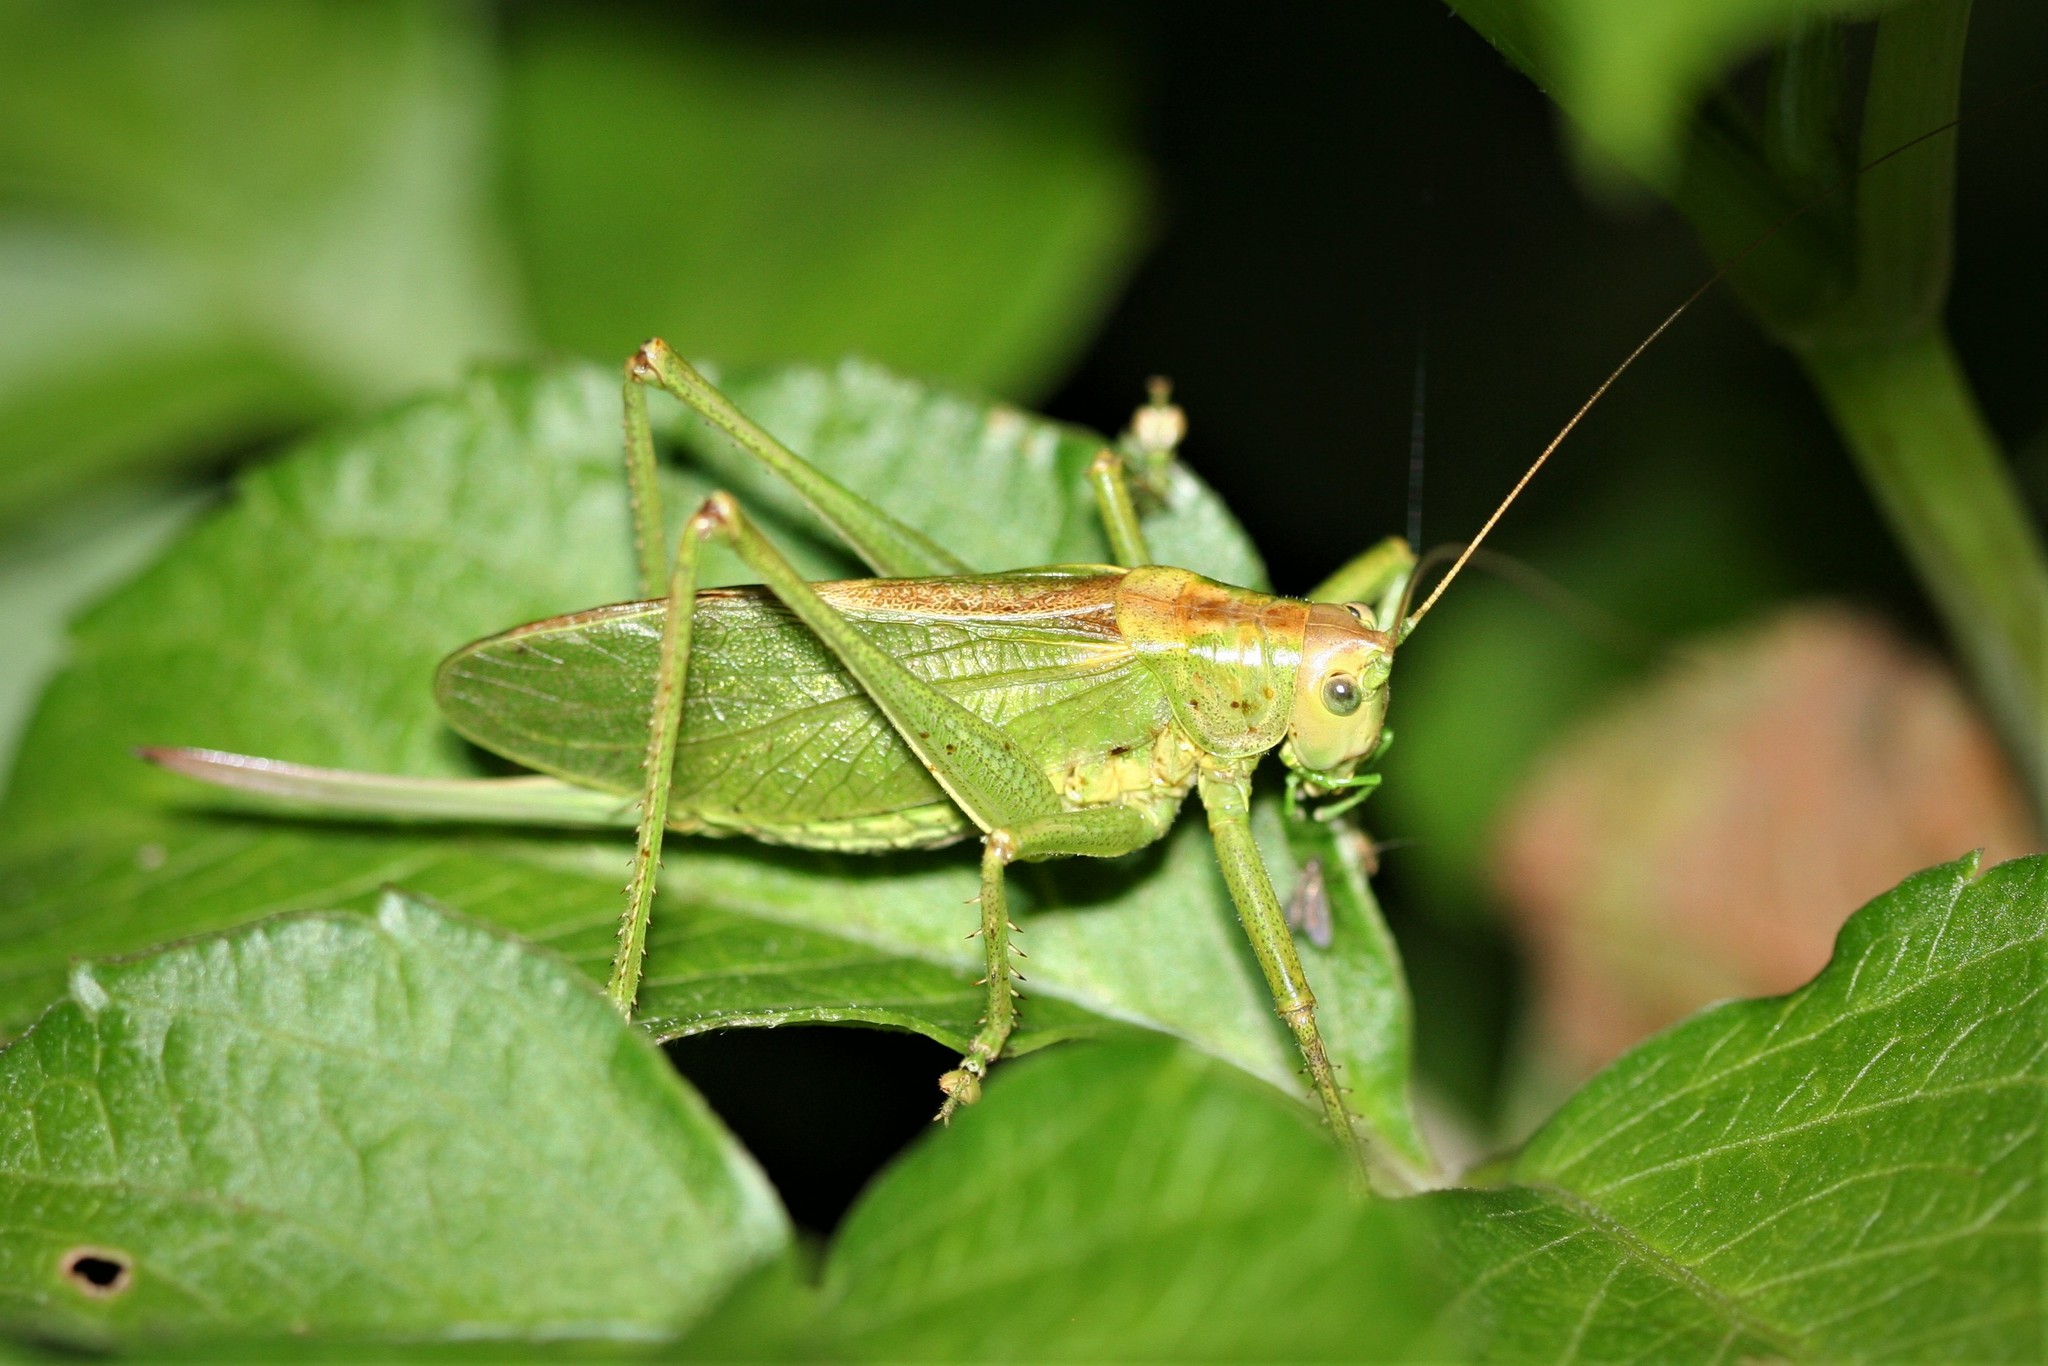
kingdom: Animalia
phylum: Arthropoda
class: Insecta
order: Orthoptera
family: Tettigoniidae
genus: Tettigonia
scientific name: Tettigonia cantans
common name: Upland green bush-cricket
